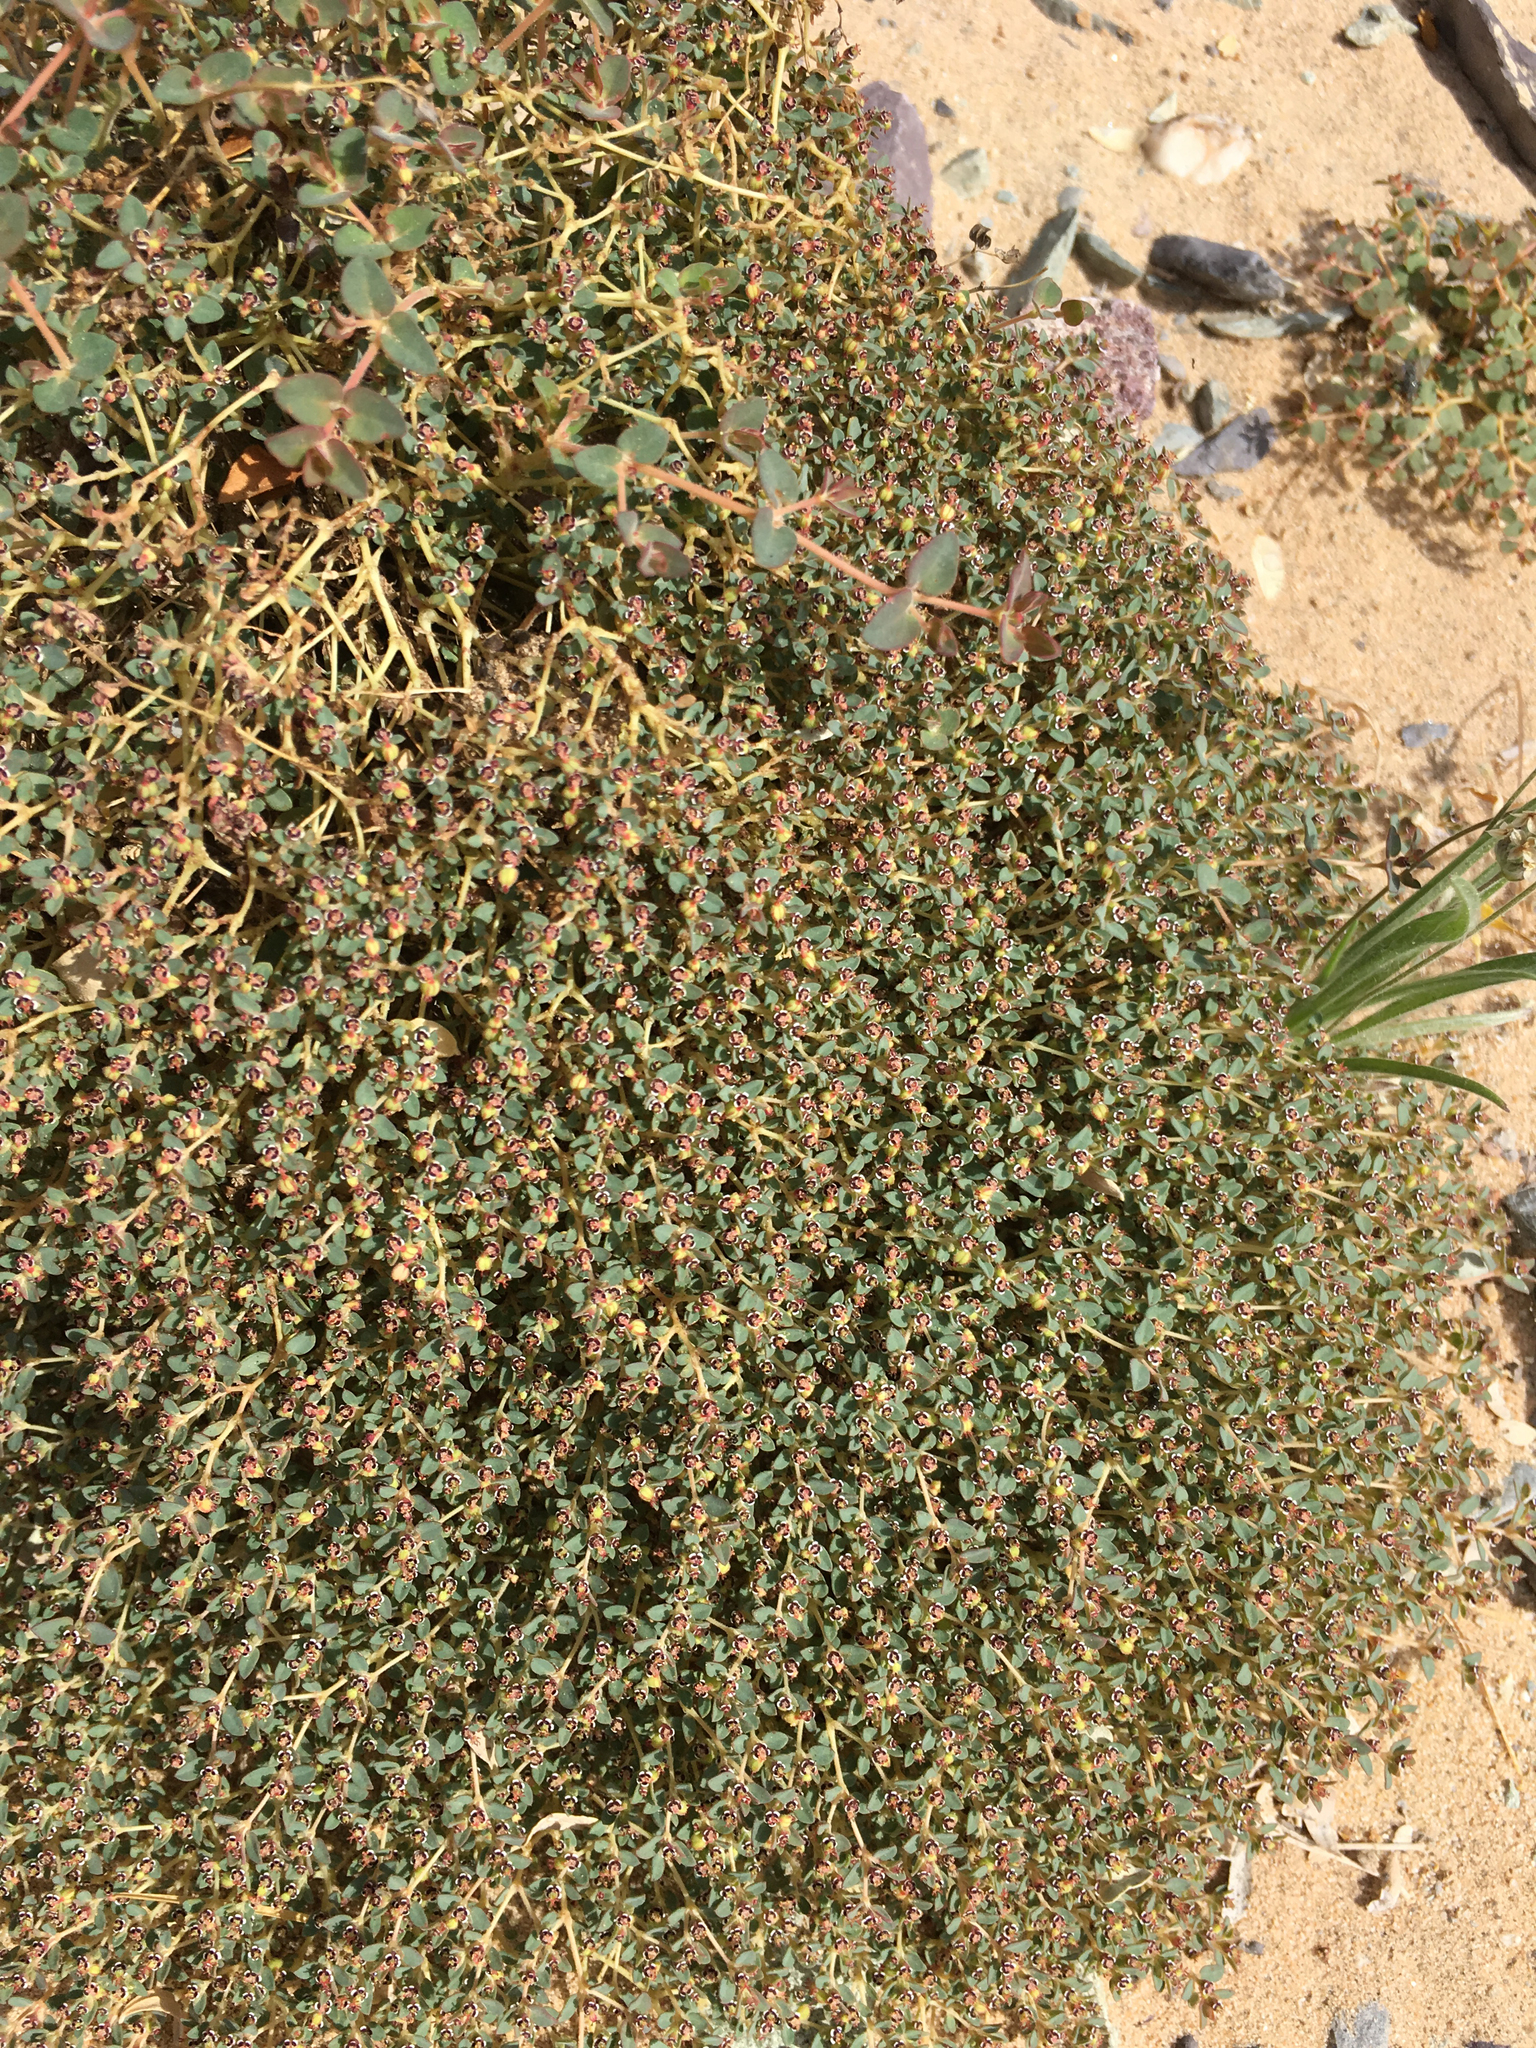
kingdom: Plantae
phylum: Tracheophyta
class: Magnoliopsida
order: Malpighiales
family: Euphorbiaceae
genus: Euphorbia
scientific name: Euphorbia polycarpa
